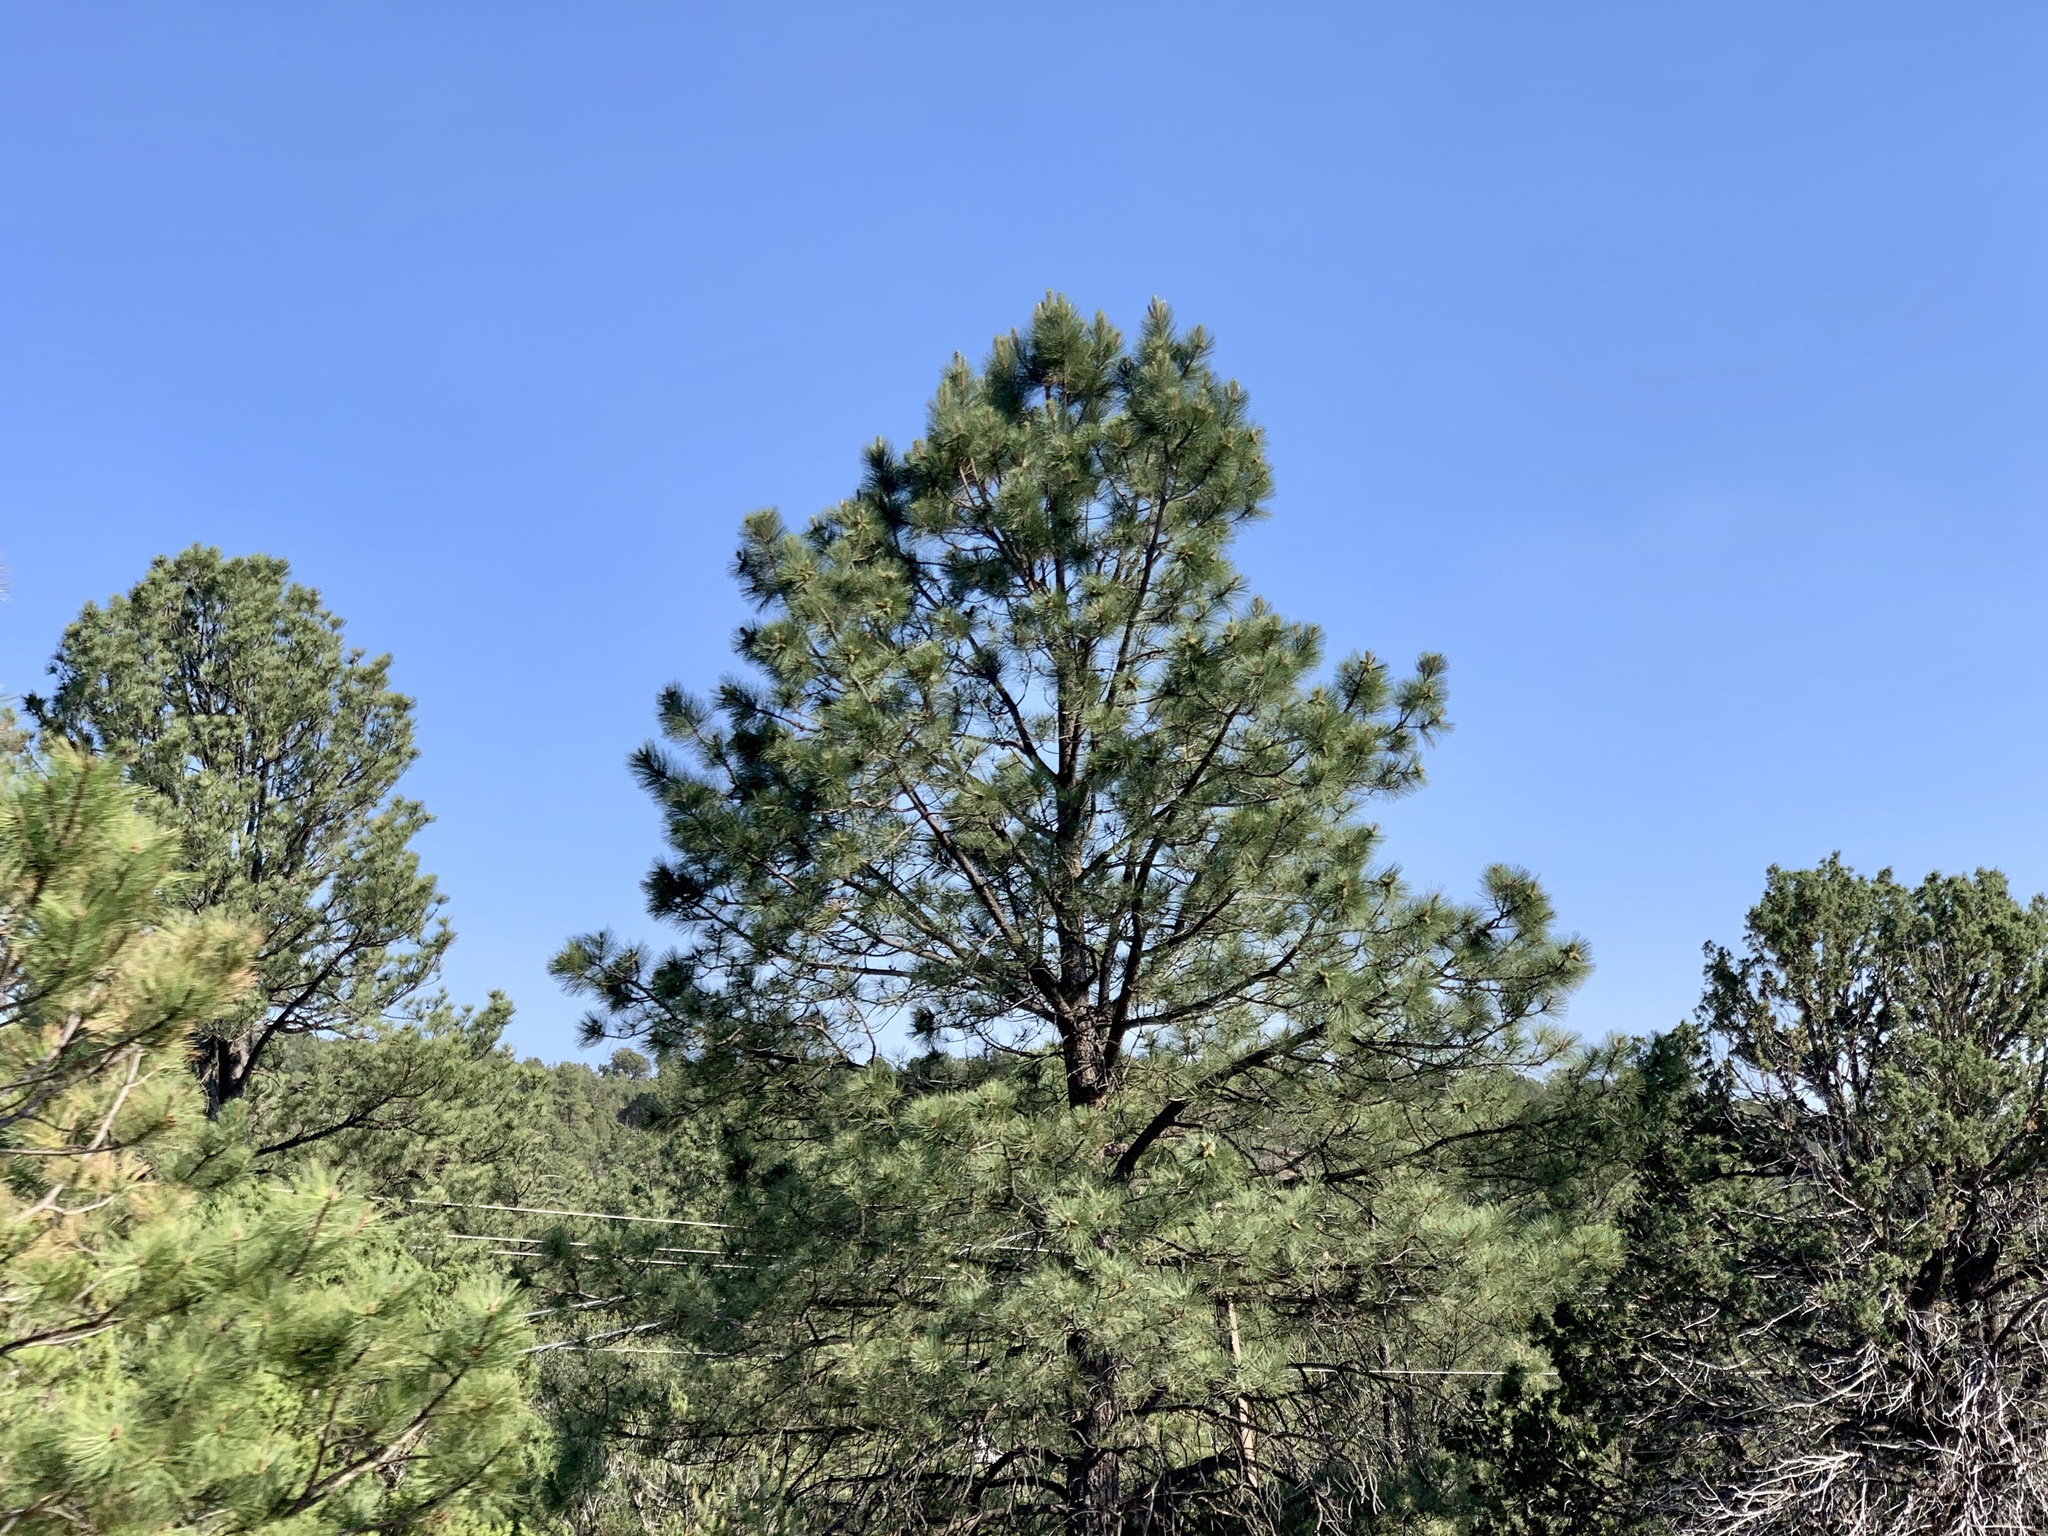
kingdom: Plantae
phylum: Tracheophyta
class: Pinopsida
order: Pinales
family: Pinaceae
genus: Pinus
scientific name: Pinus ponderosa
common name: Western yellow-pine
